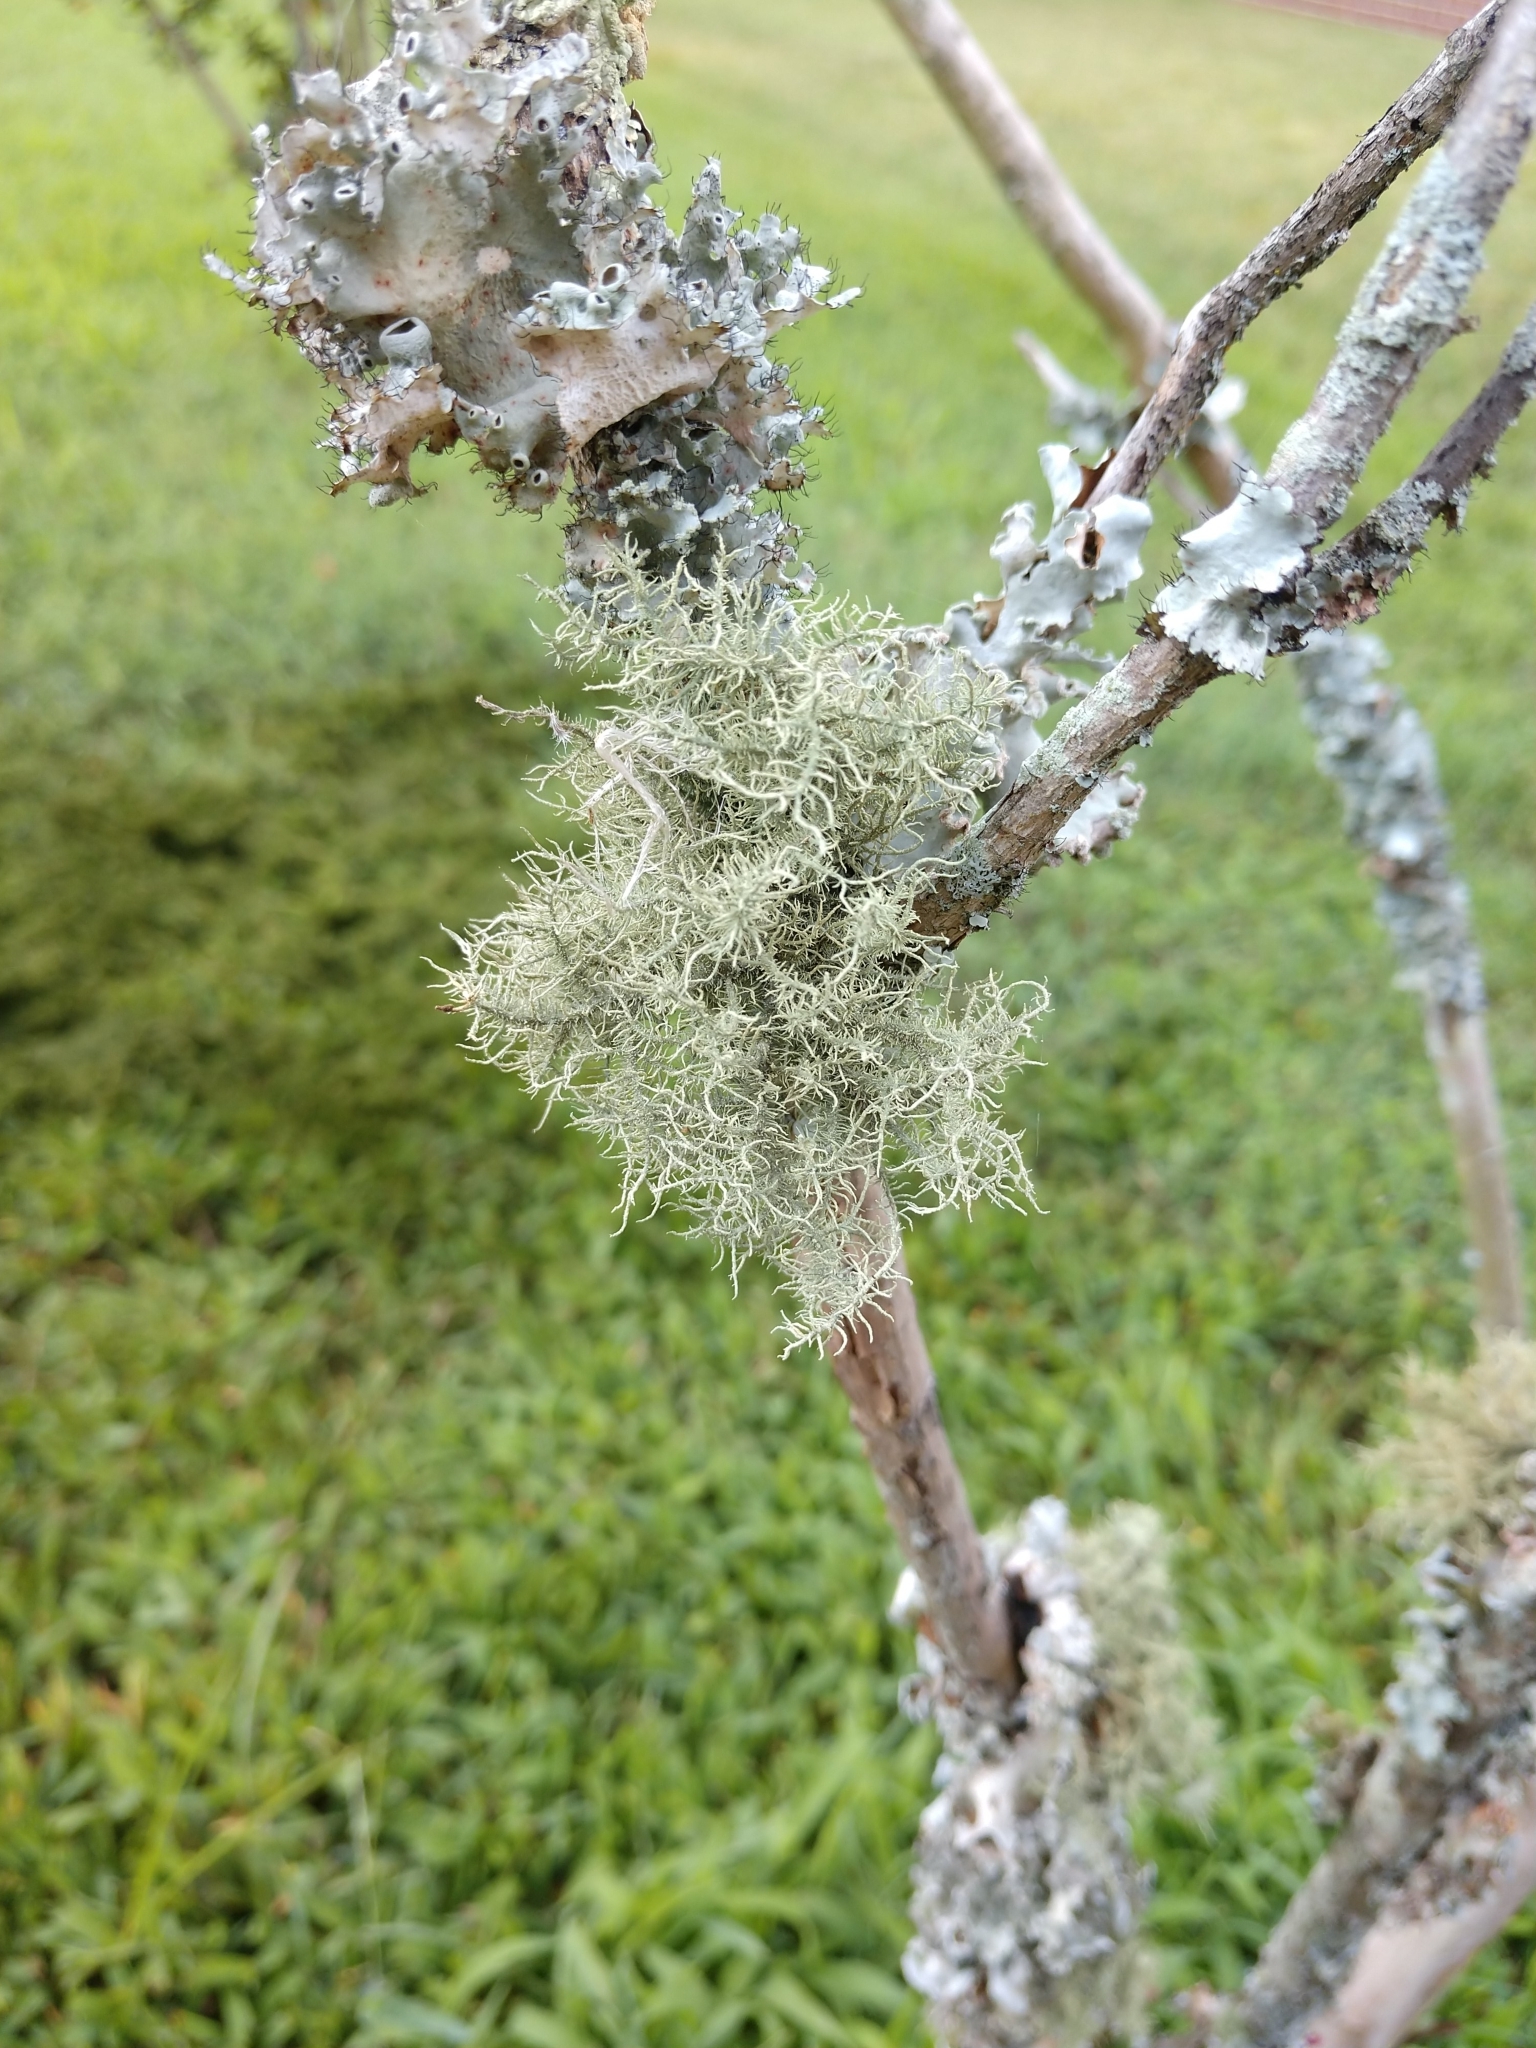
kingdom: Fungi
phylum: Ascomycota
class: Lecanoromycetes
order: Lecanorales
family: Parmeliaceae
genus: Usnea
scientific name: Usnea strigosa
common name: Bushy beard lichen
